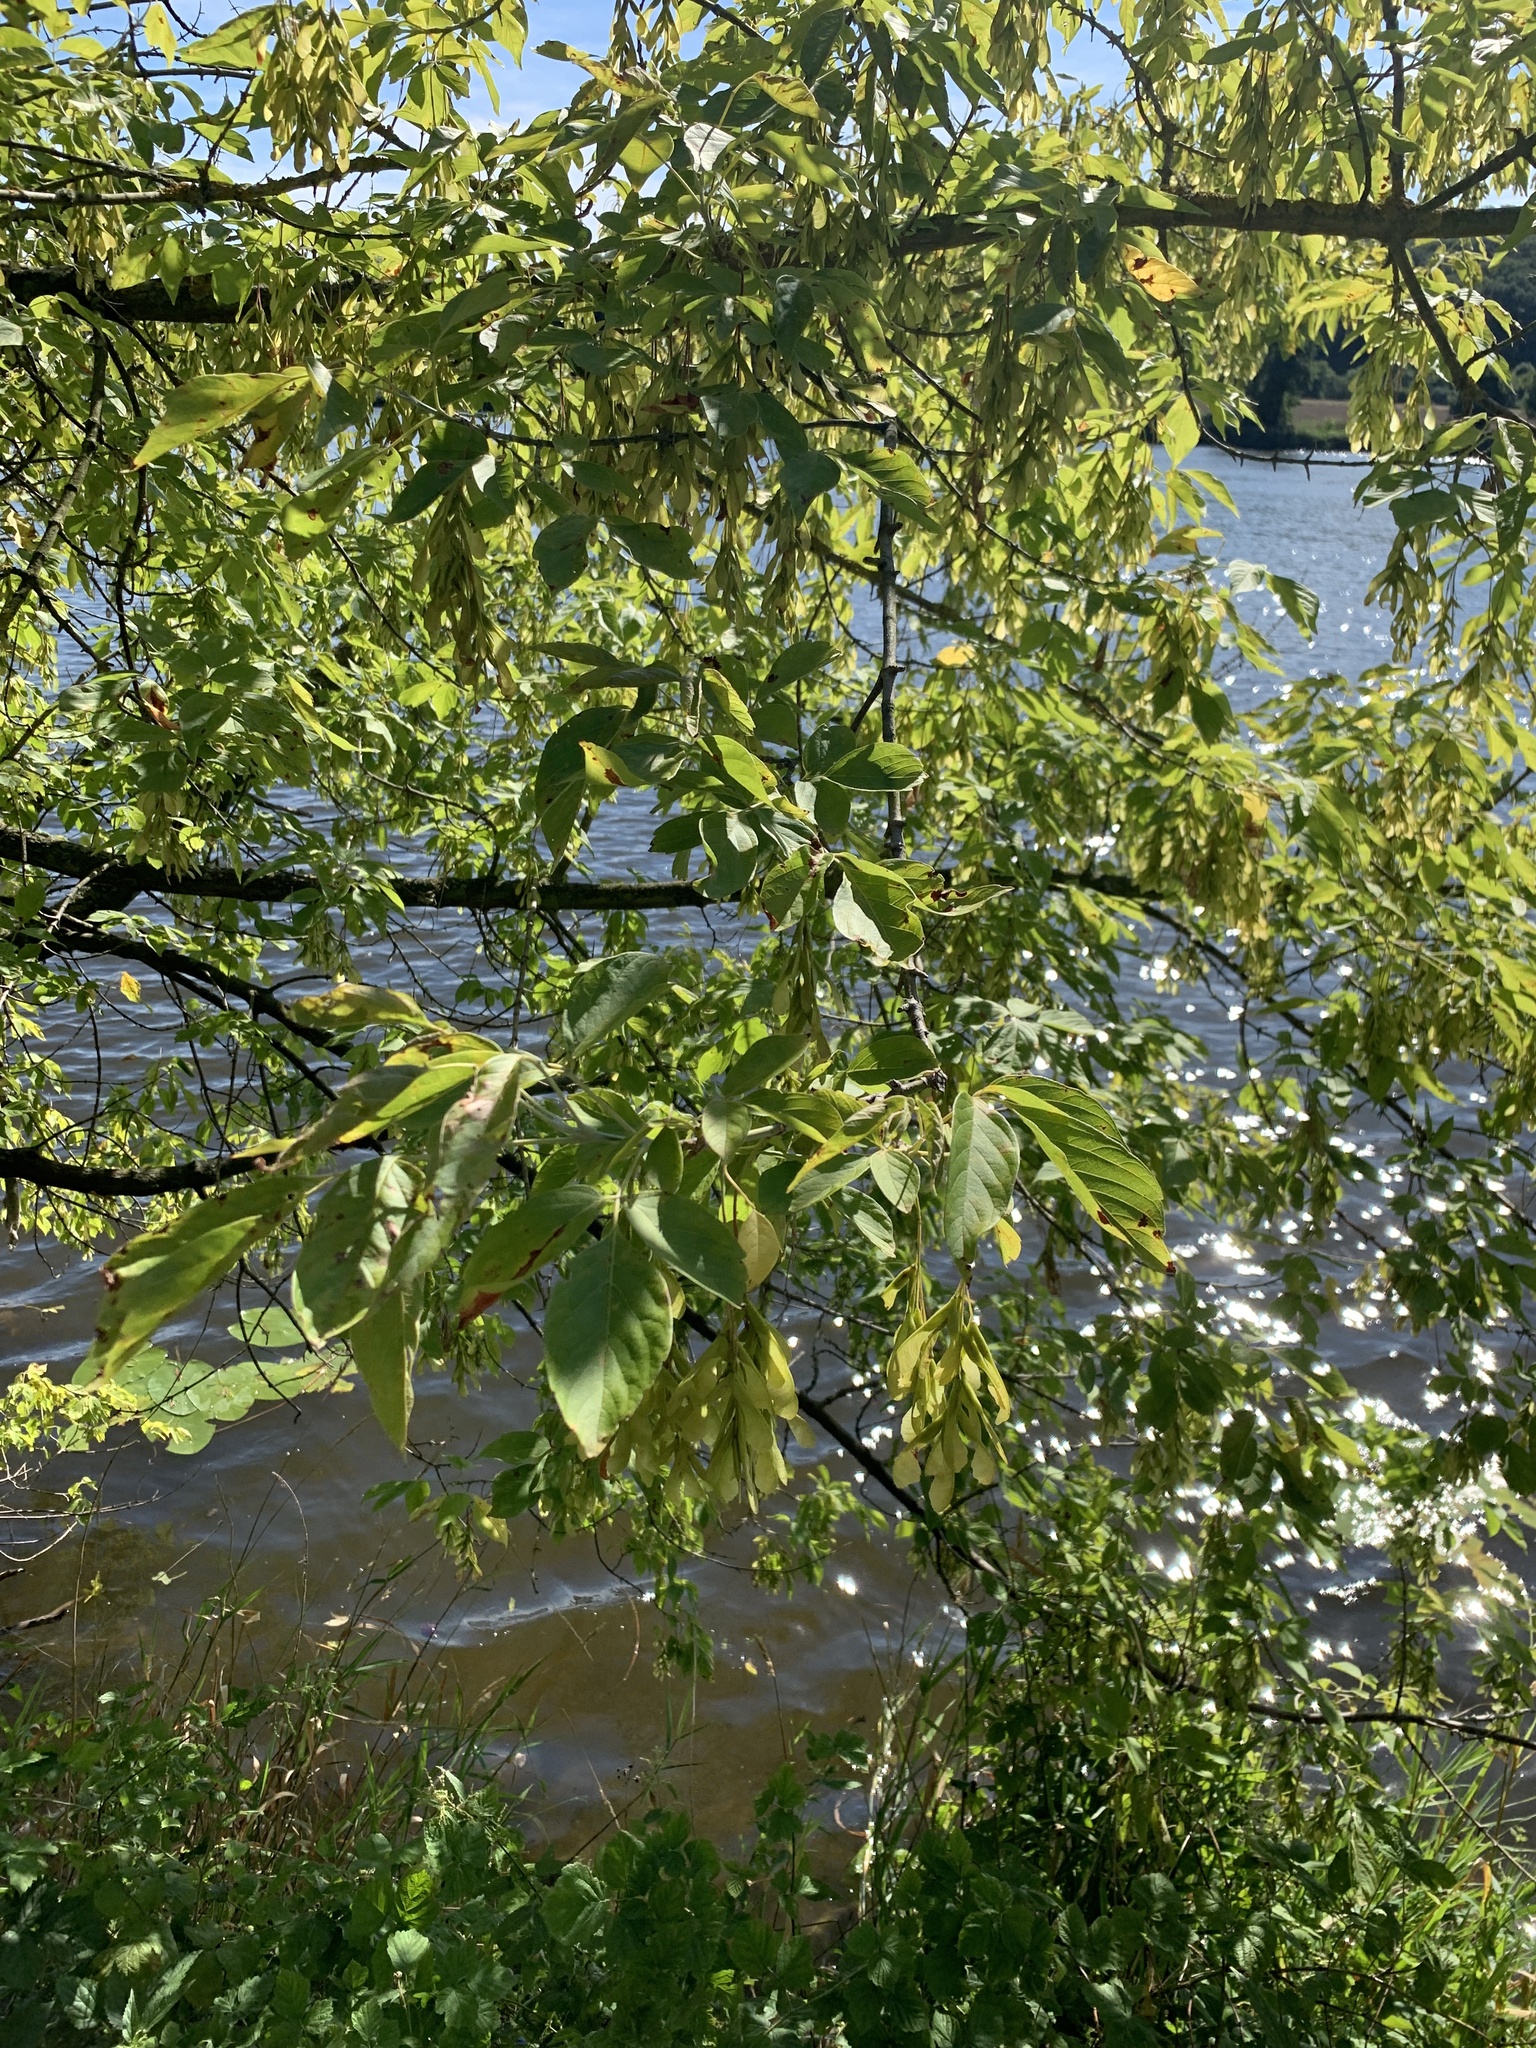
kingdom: Plantae
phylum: Tracheophyta
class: Magnoliopsida
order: Sapindales
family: Sapindaceae
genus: Acer
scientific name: Acer negundo
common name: Ashleaf maple
